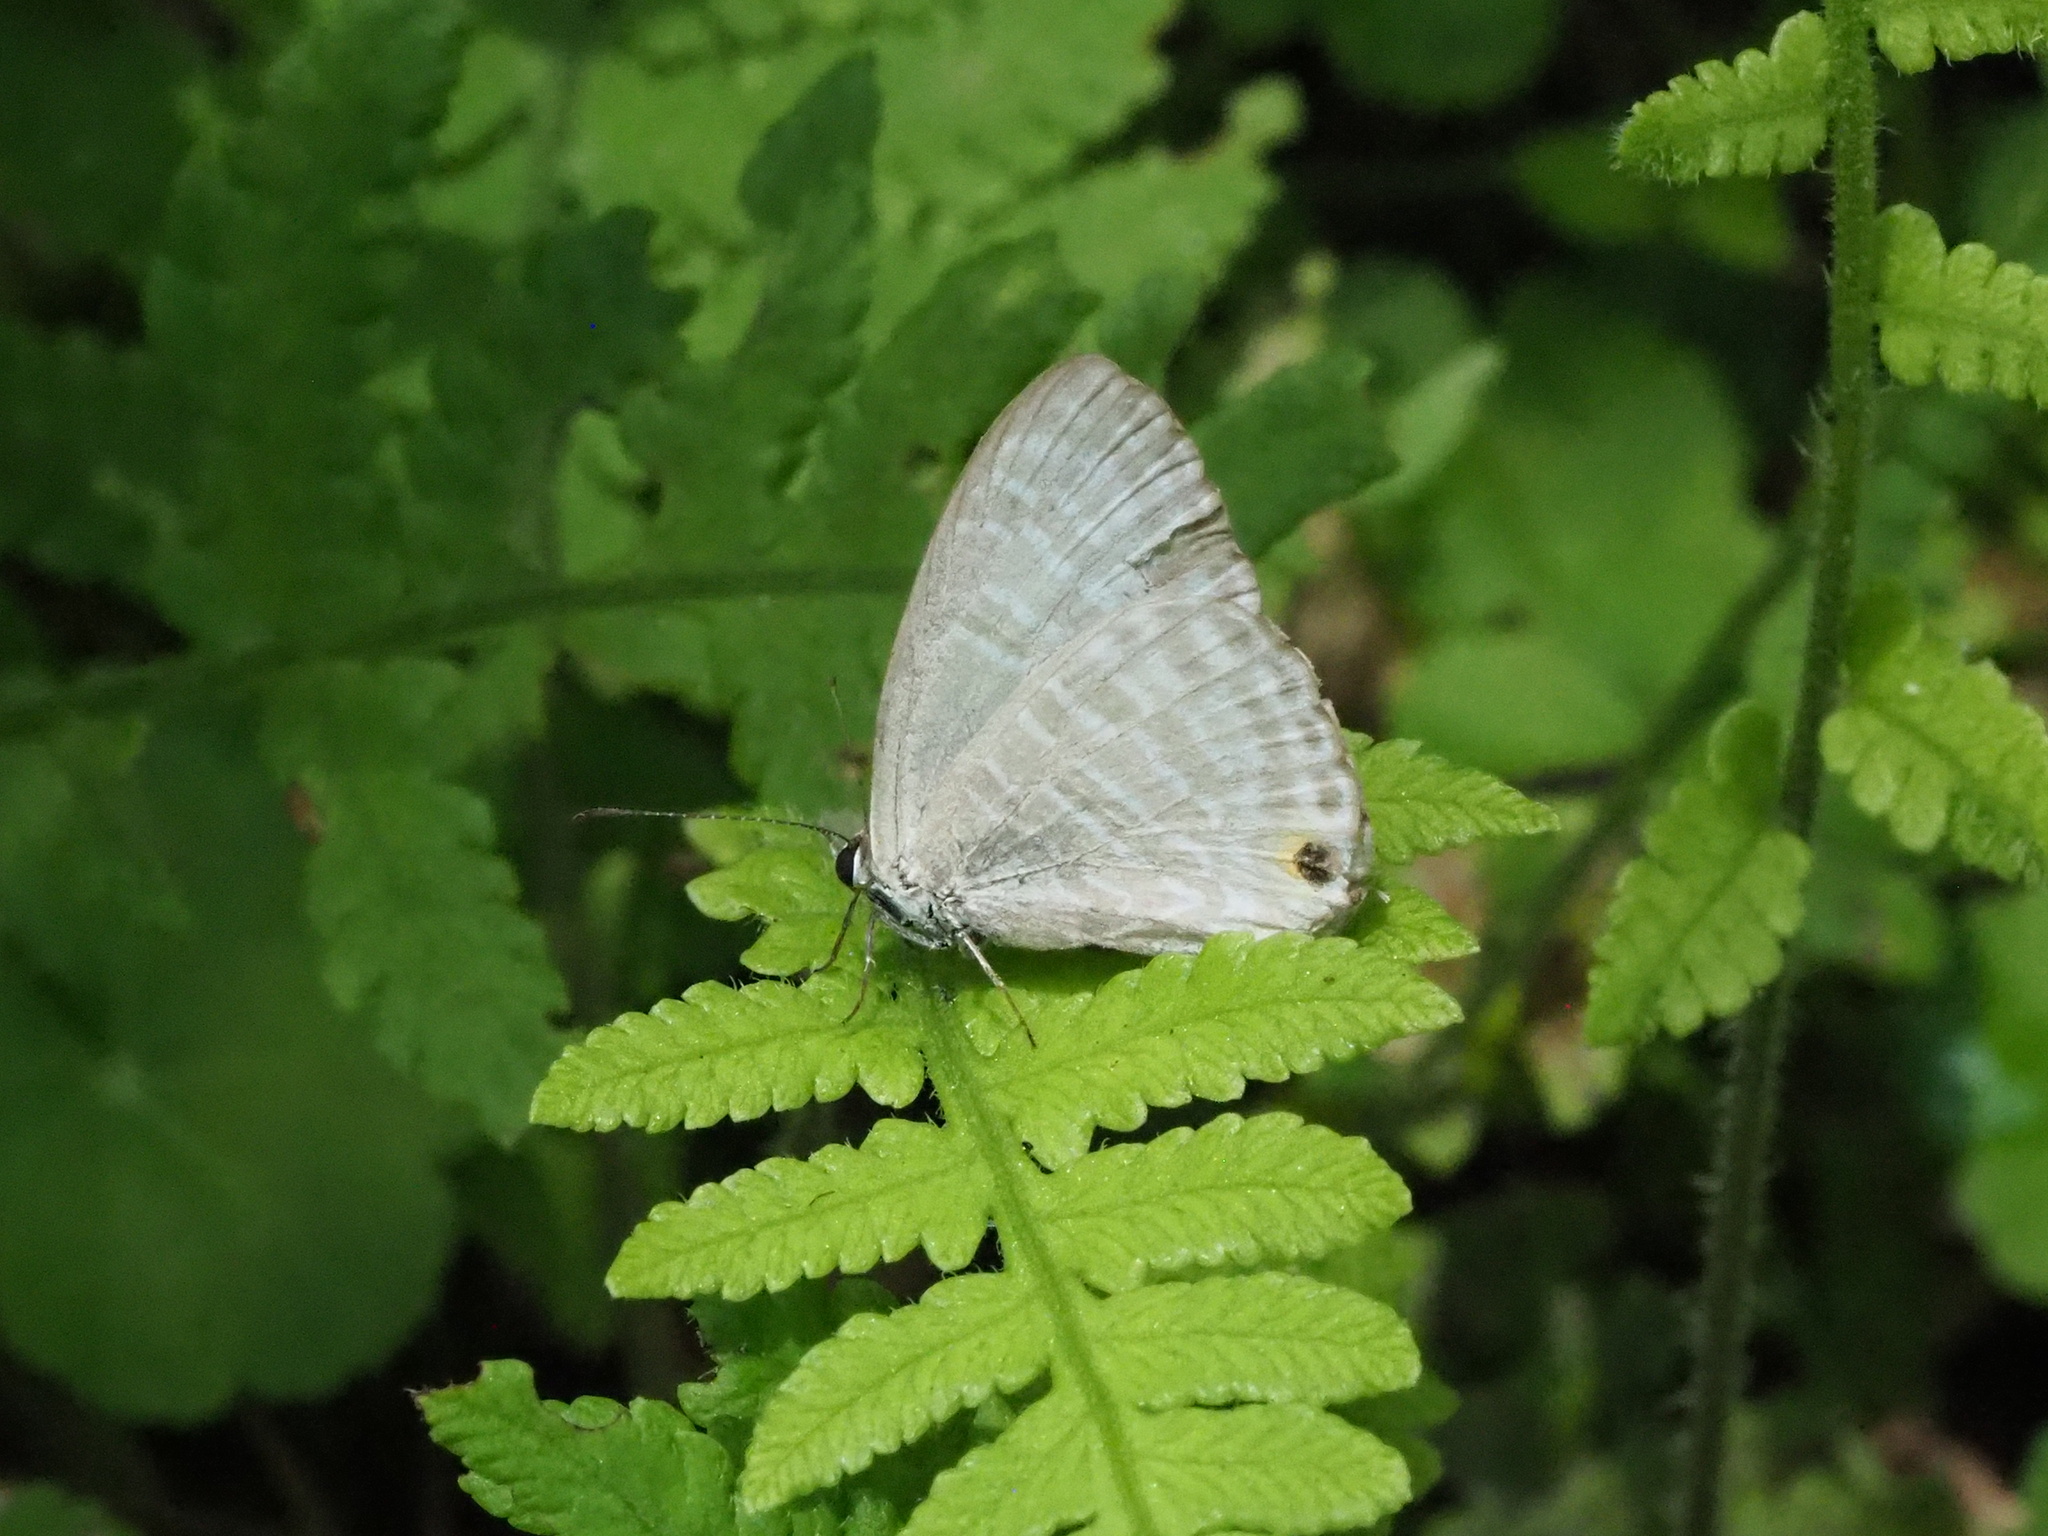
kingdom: Animalia
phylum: Arthropoda
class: Insecta
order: Lepidoptera
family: Lycaenidae
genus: Jamides
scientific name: Jamides alecto
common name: Metallic cerulean
